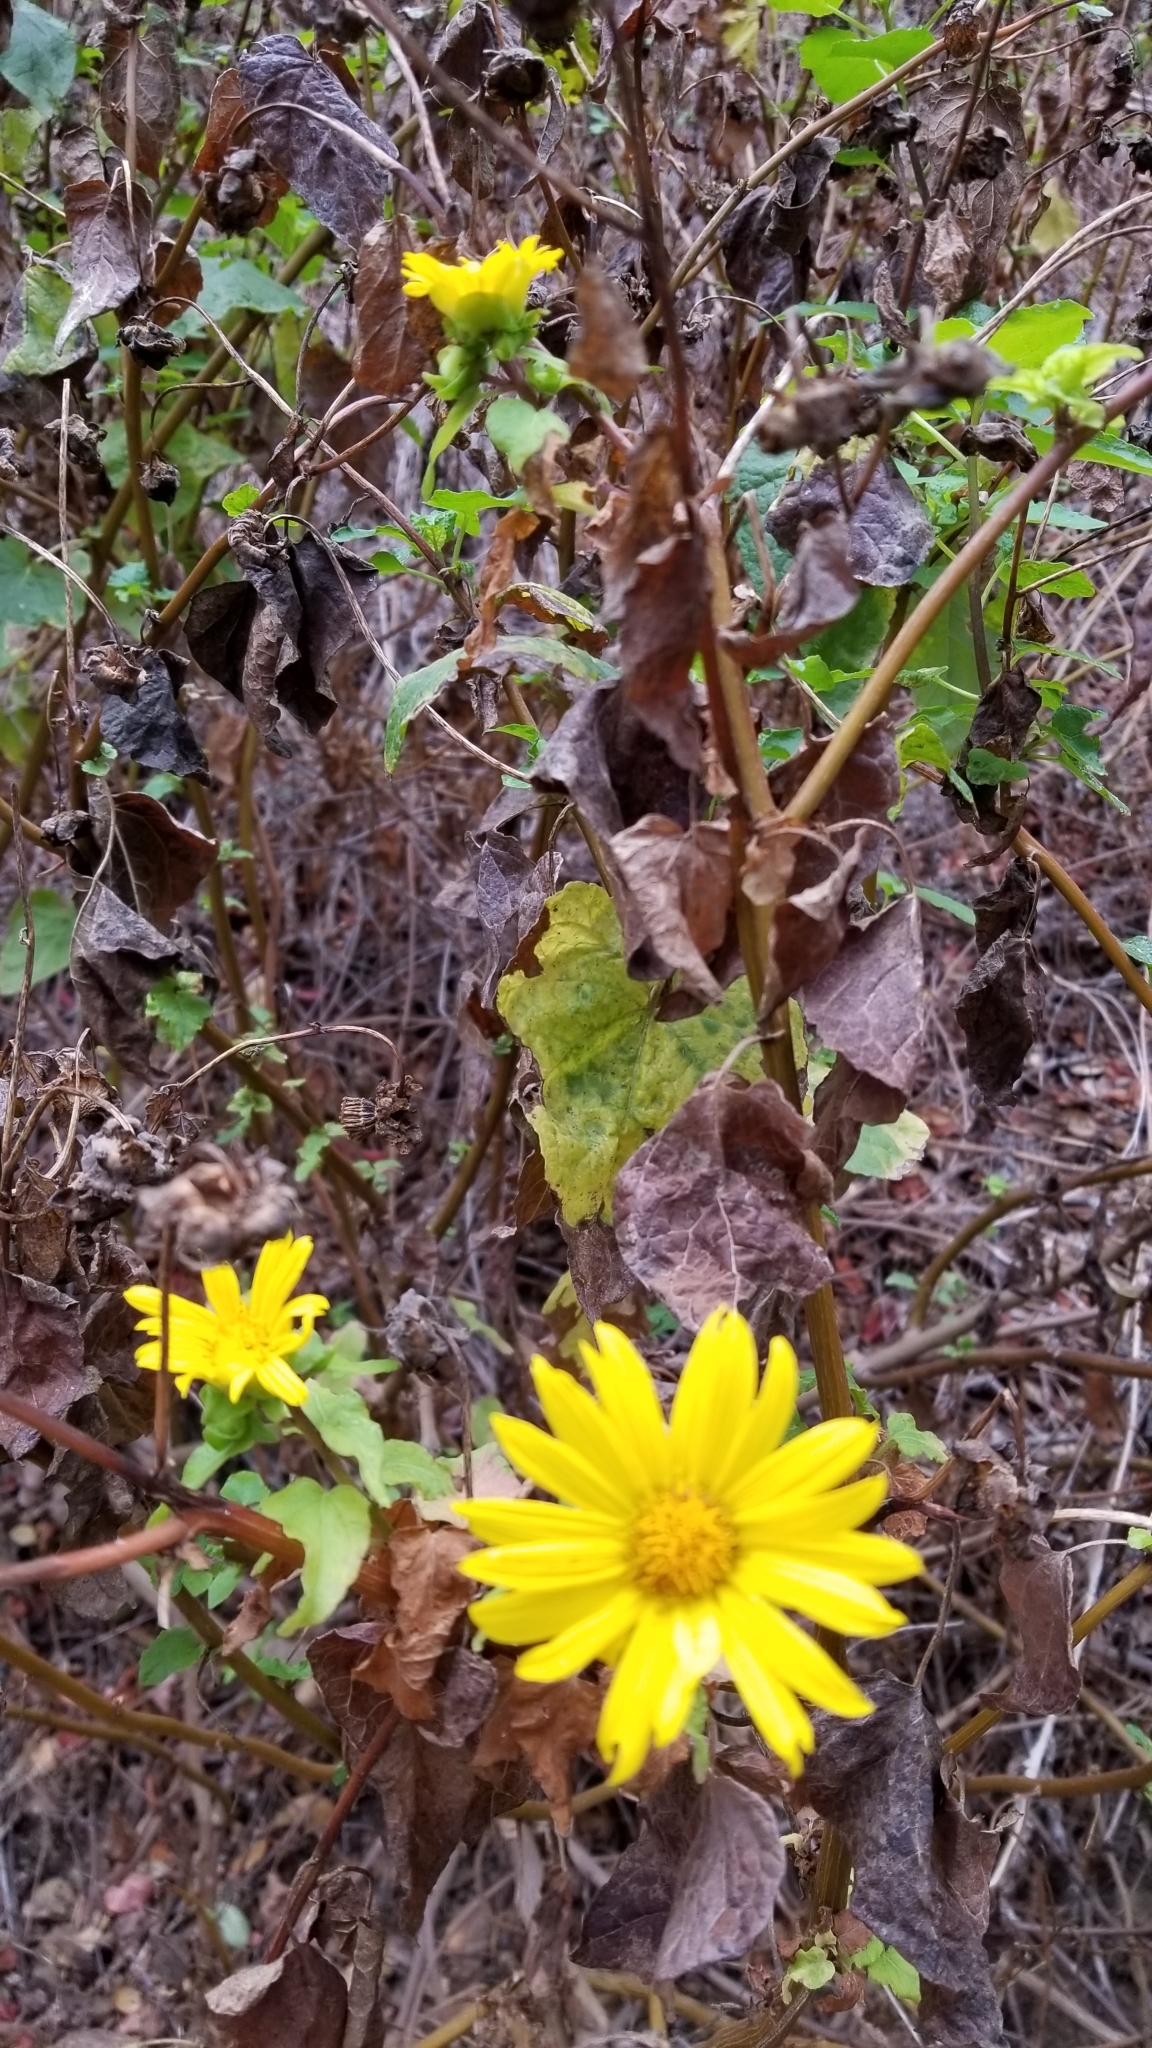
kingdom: Plantae
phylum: Tracheophyta
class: Magnoliopsida
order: Asterales
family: Asteraceae
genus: Venegasia
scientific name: Venegasia carpesioides
